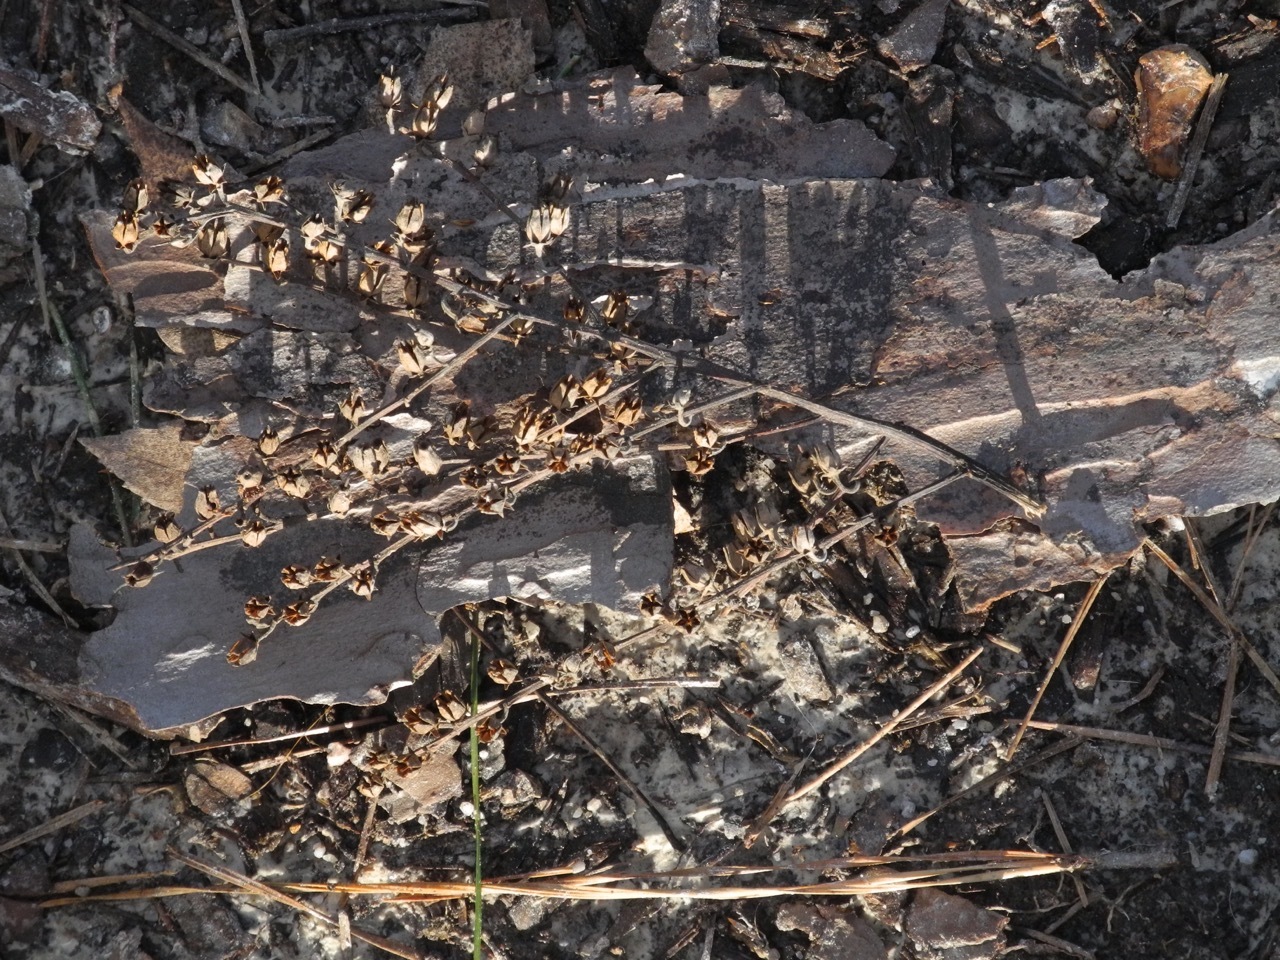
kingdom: Plantae
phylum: Tracheophyta
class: Magnoliopsida
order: Ericales
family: Ericaceae
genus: Oxydendrum
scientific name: Oxydendrum arboreum
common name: Sourwood
